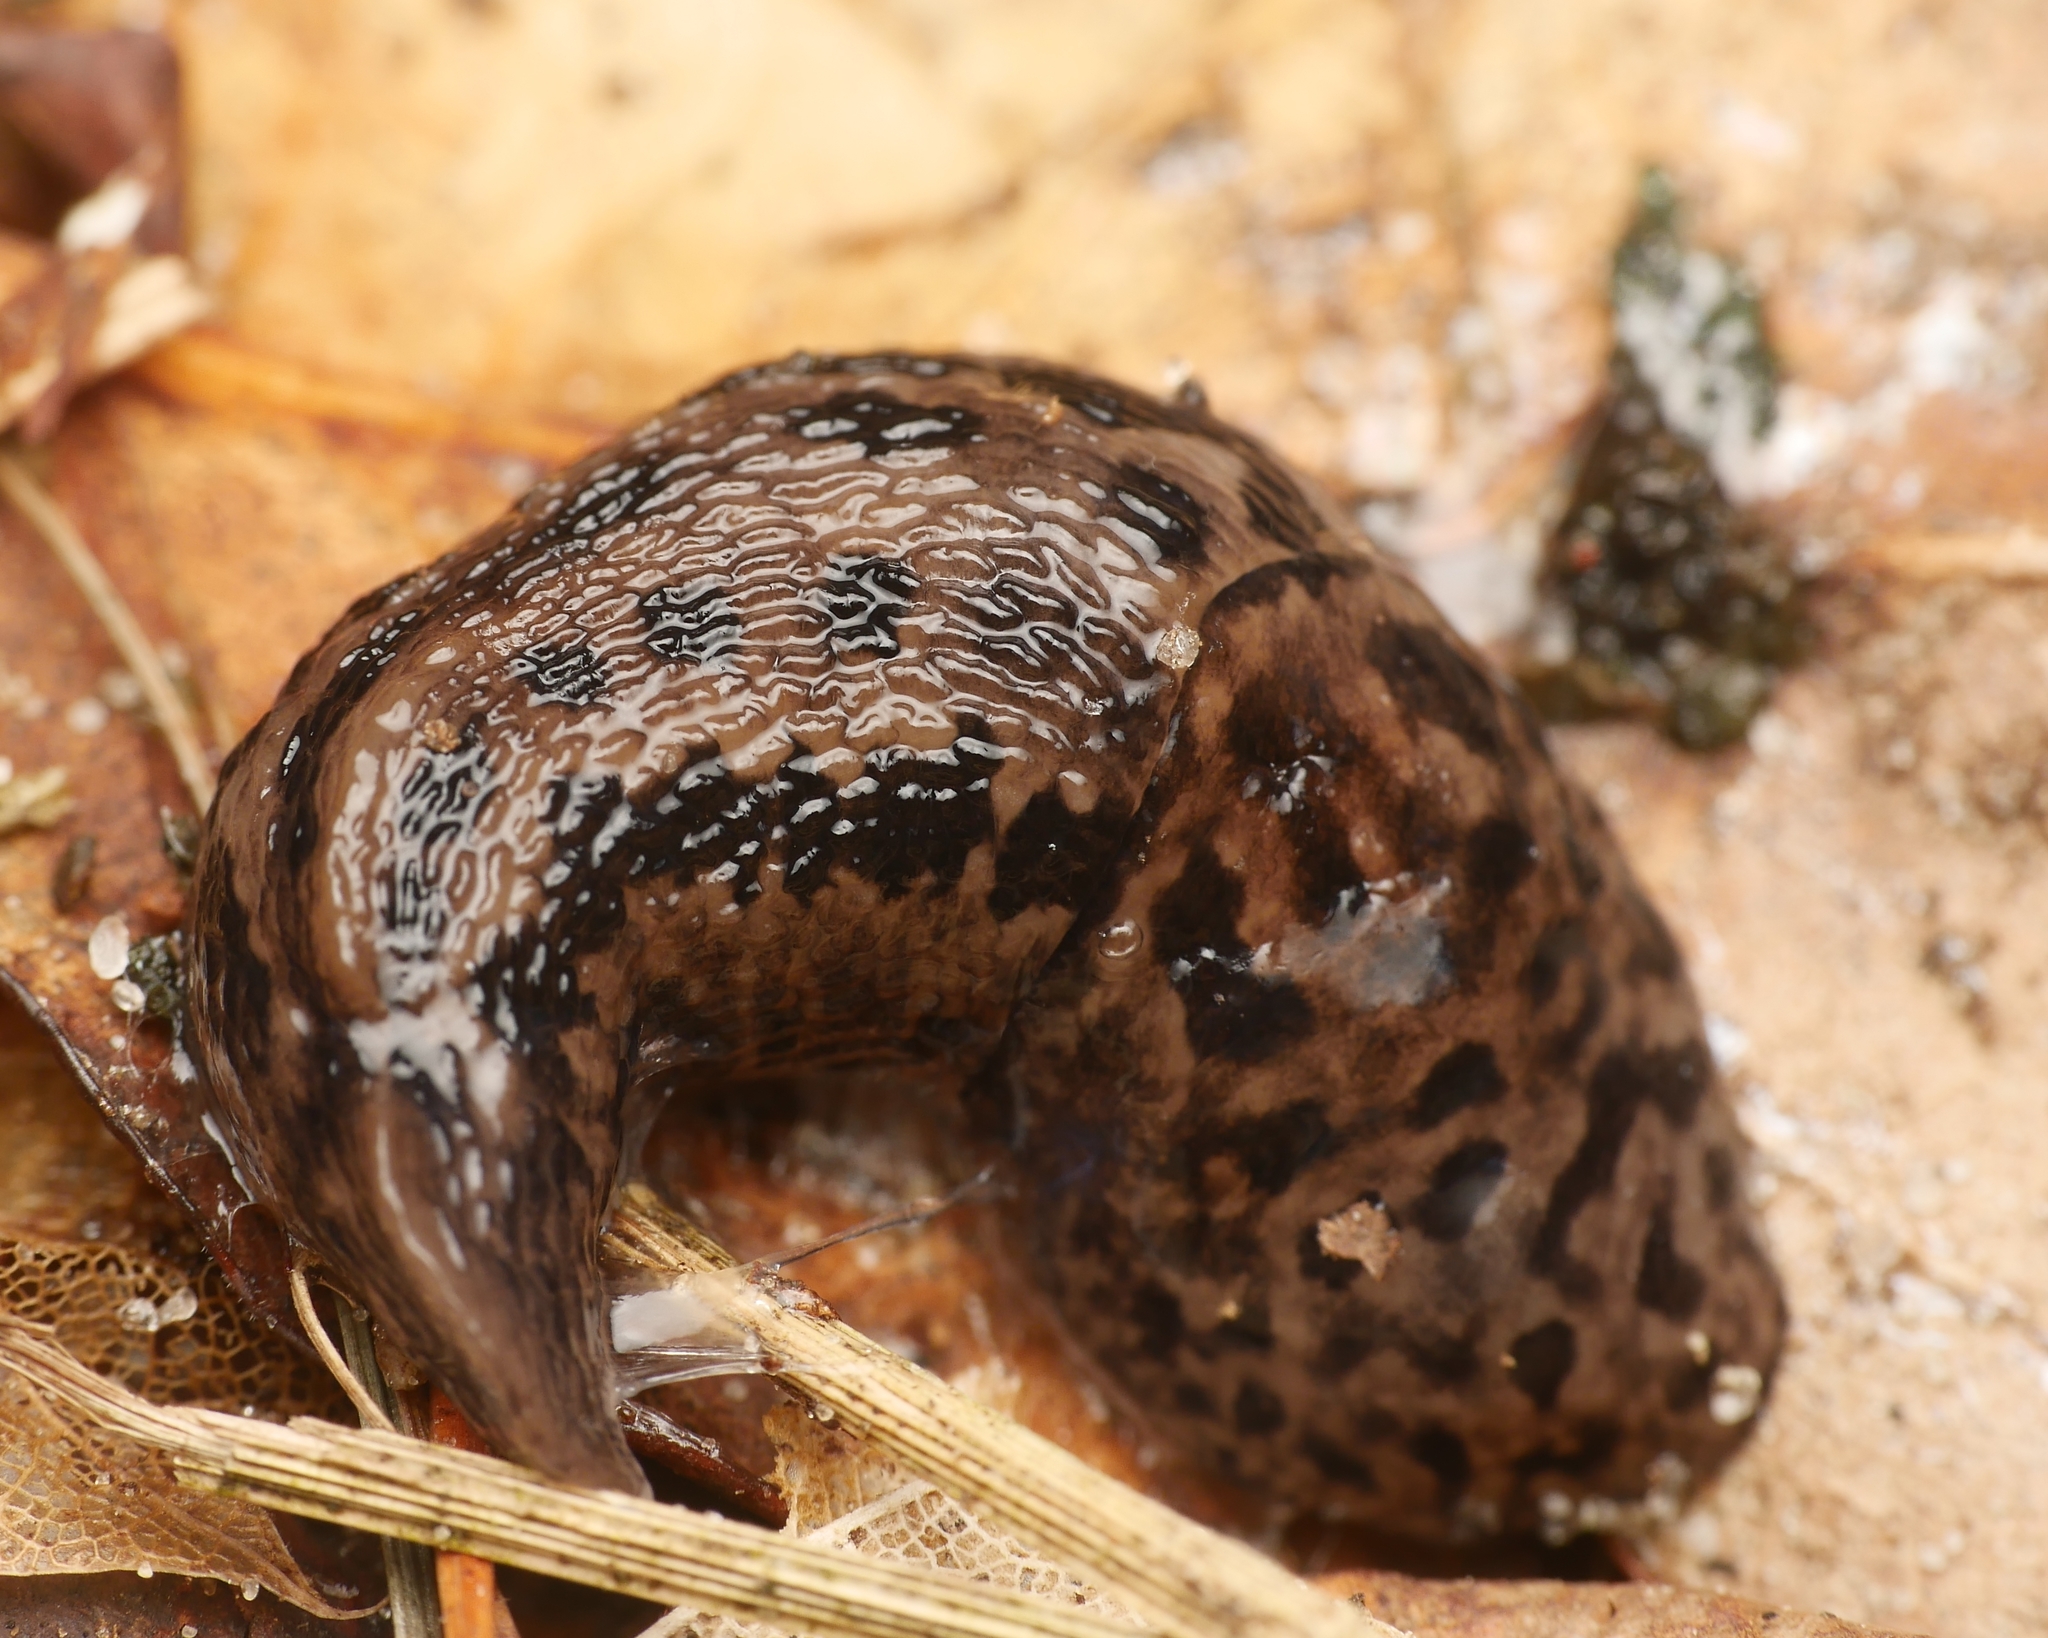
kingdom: Animalia
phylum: Mollusca
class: Gastropoda
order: Stylommatophora
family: Limacidae
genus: Limax
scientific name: Limax maximus
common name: Great grey slug
